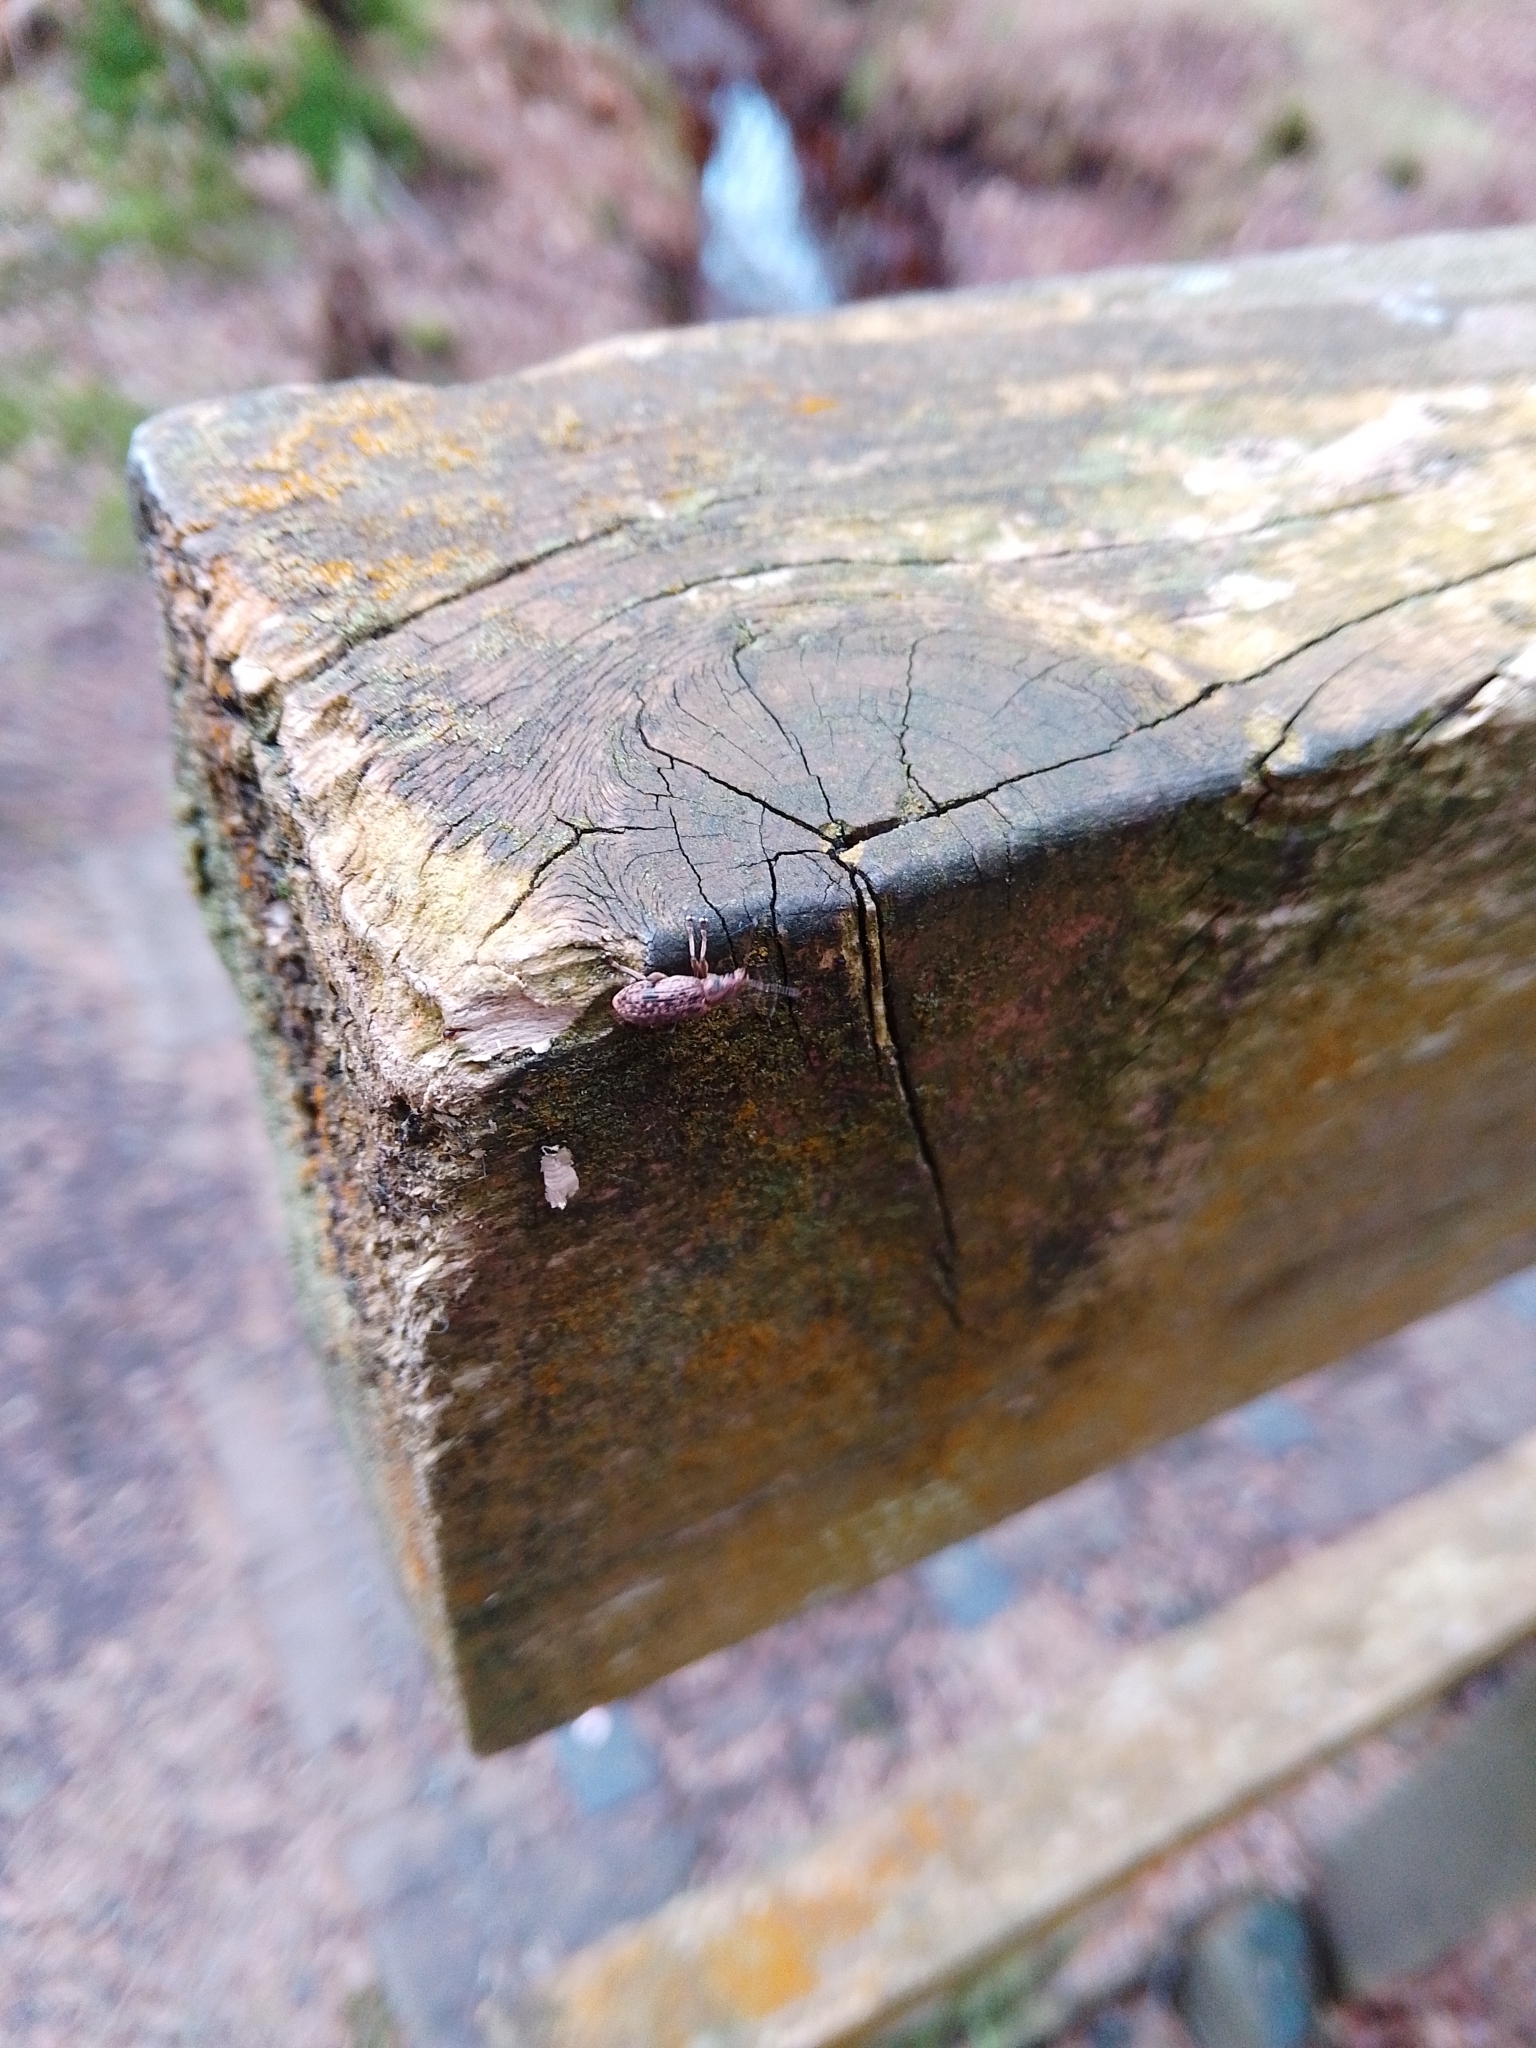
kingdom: Animalia
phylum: Arthropoda
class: Insecta
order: Coleoptera
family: Curculionidae
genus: Polydrusus
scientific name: Polydrusus pilosus
